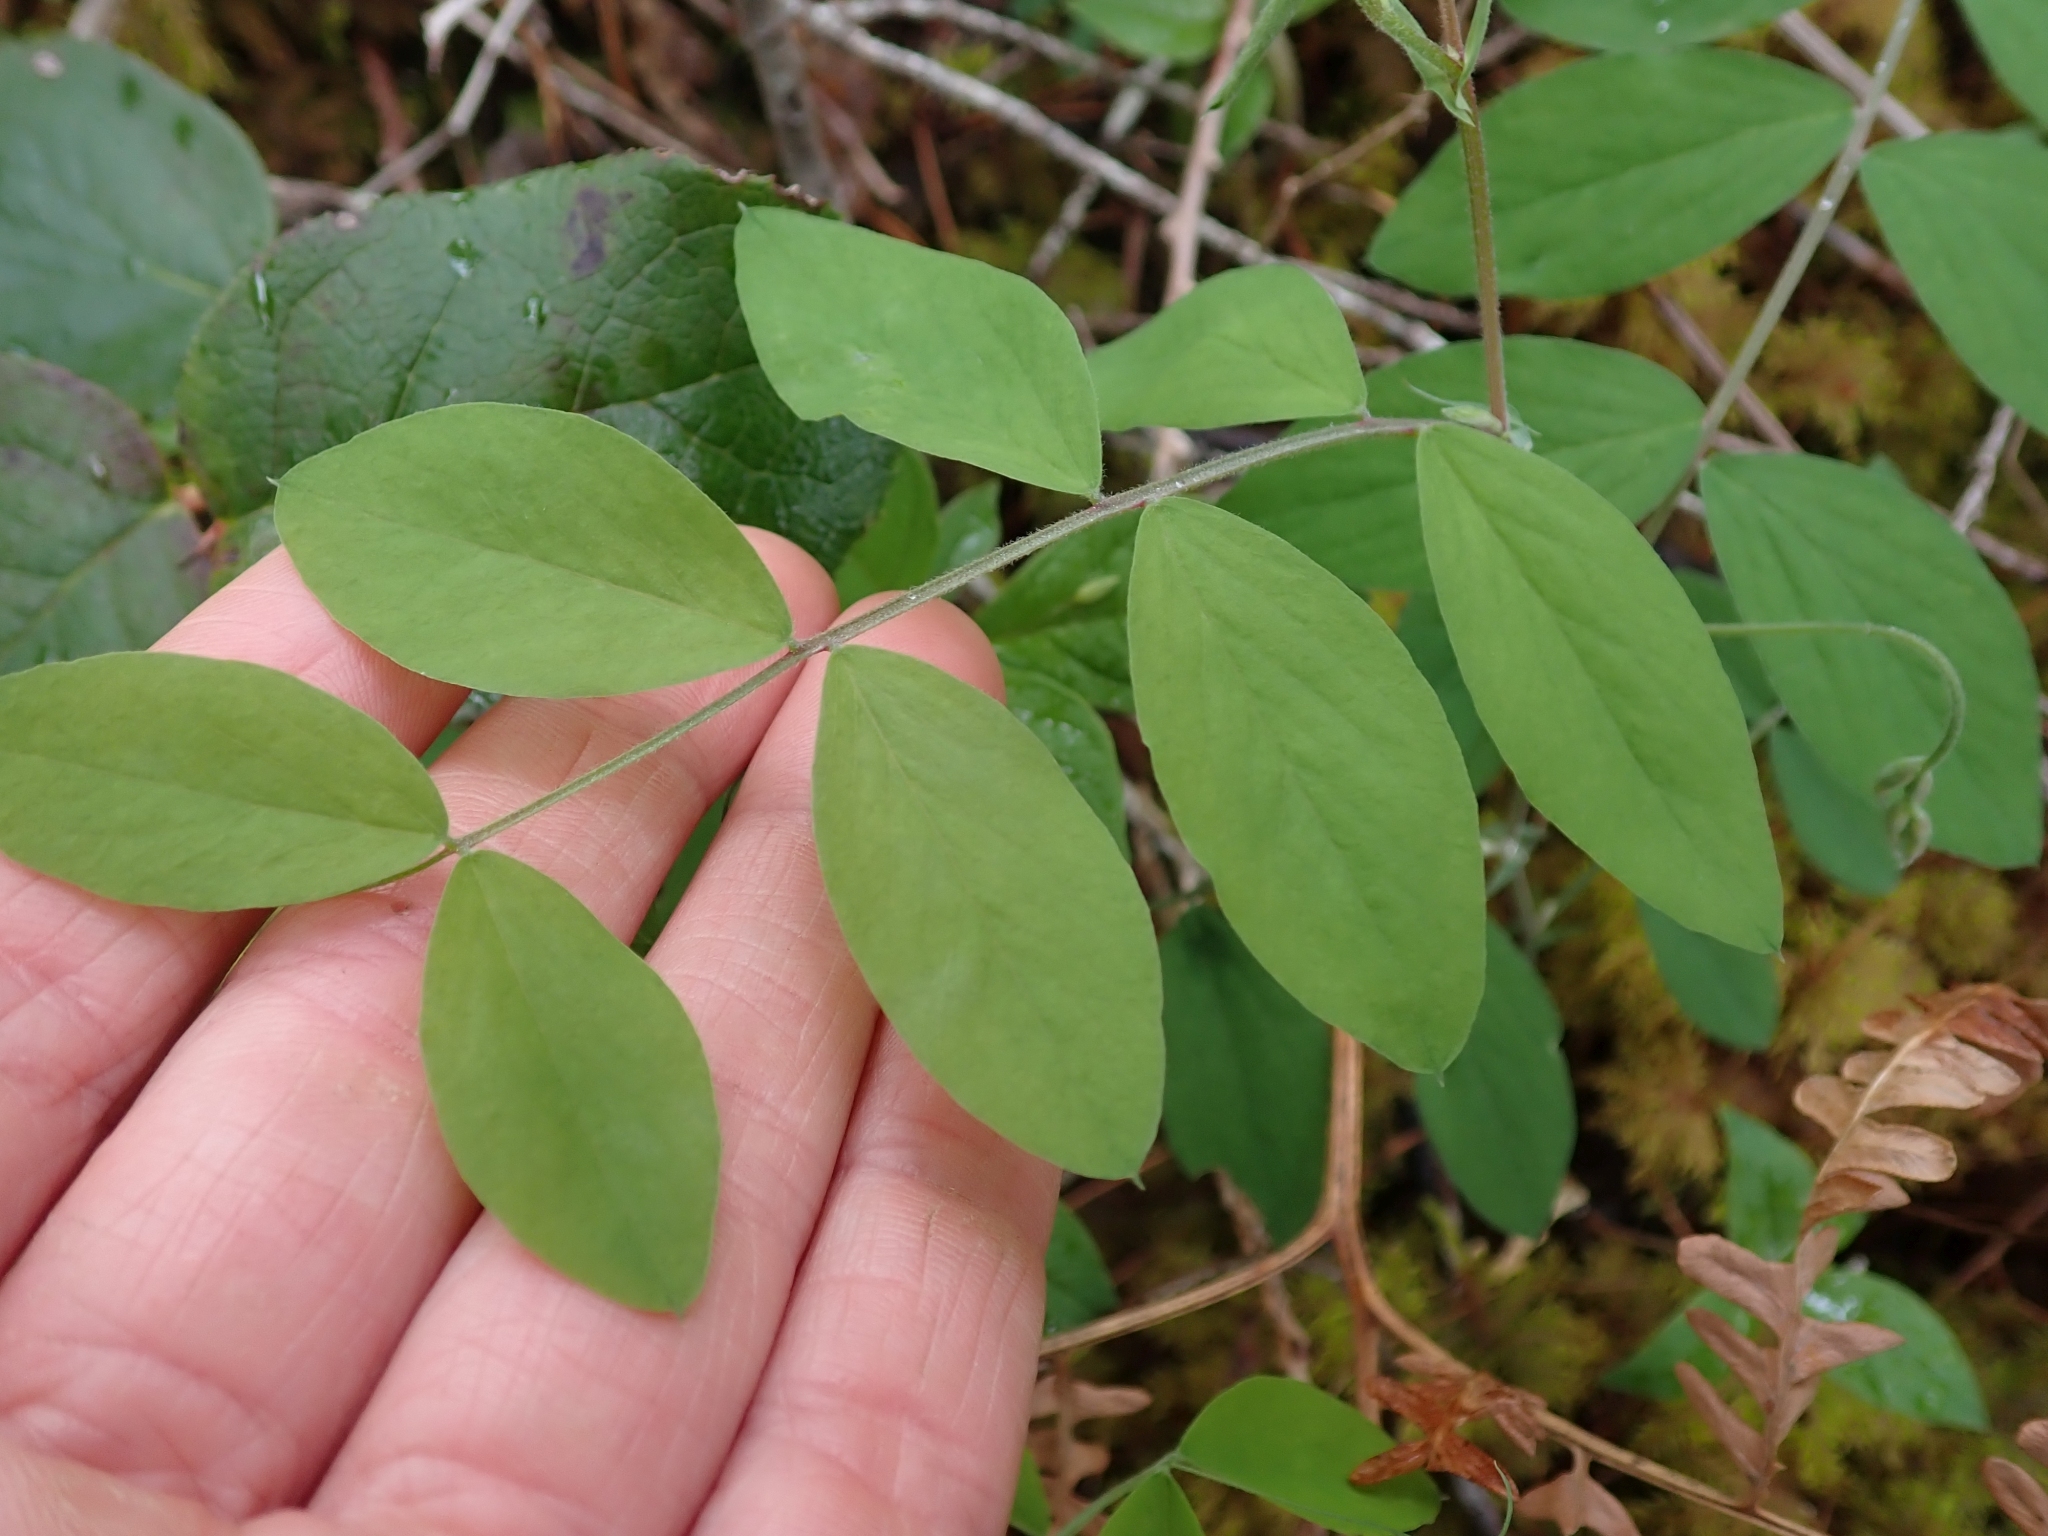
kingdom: Plantae
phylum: Tracheophyta
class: Magnoliopsida
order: Fabales
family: Fabaceae
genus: Lathyrus
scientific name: Lathyrus nevadensis
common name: Sierra nevada peavine
